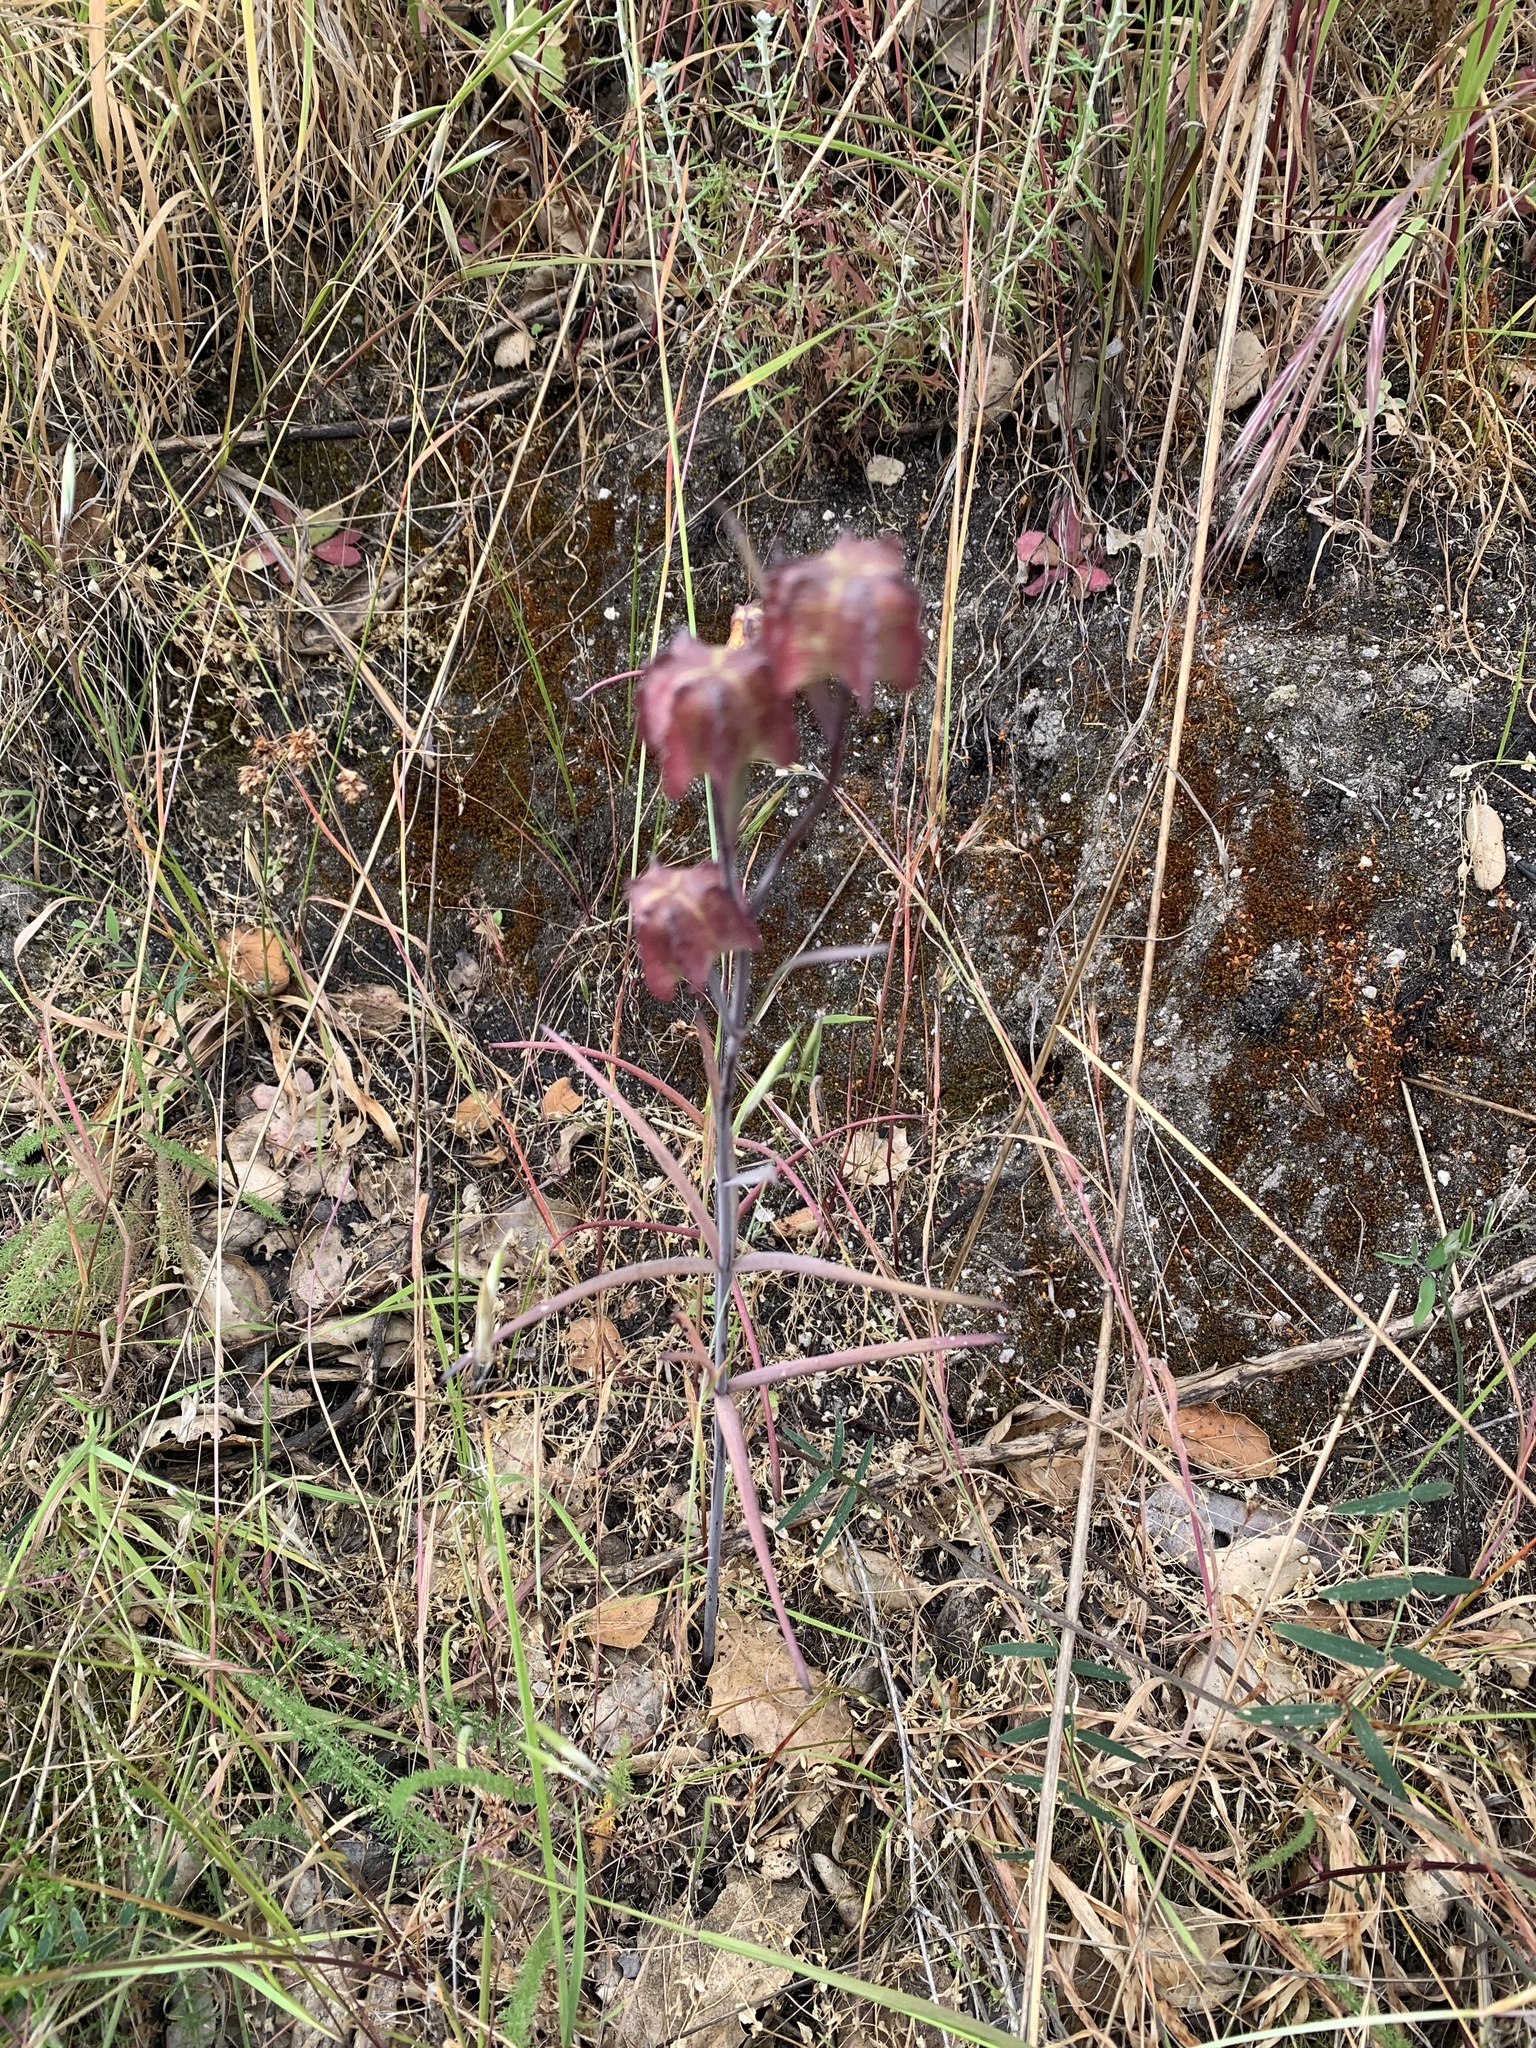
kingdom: Plantae
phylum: Tracheophyta
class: Liliopsida
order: Liliales
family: Liliaceae
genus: Fritillaria
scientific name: Fritillaria affinis
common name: Ojai fritillary
